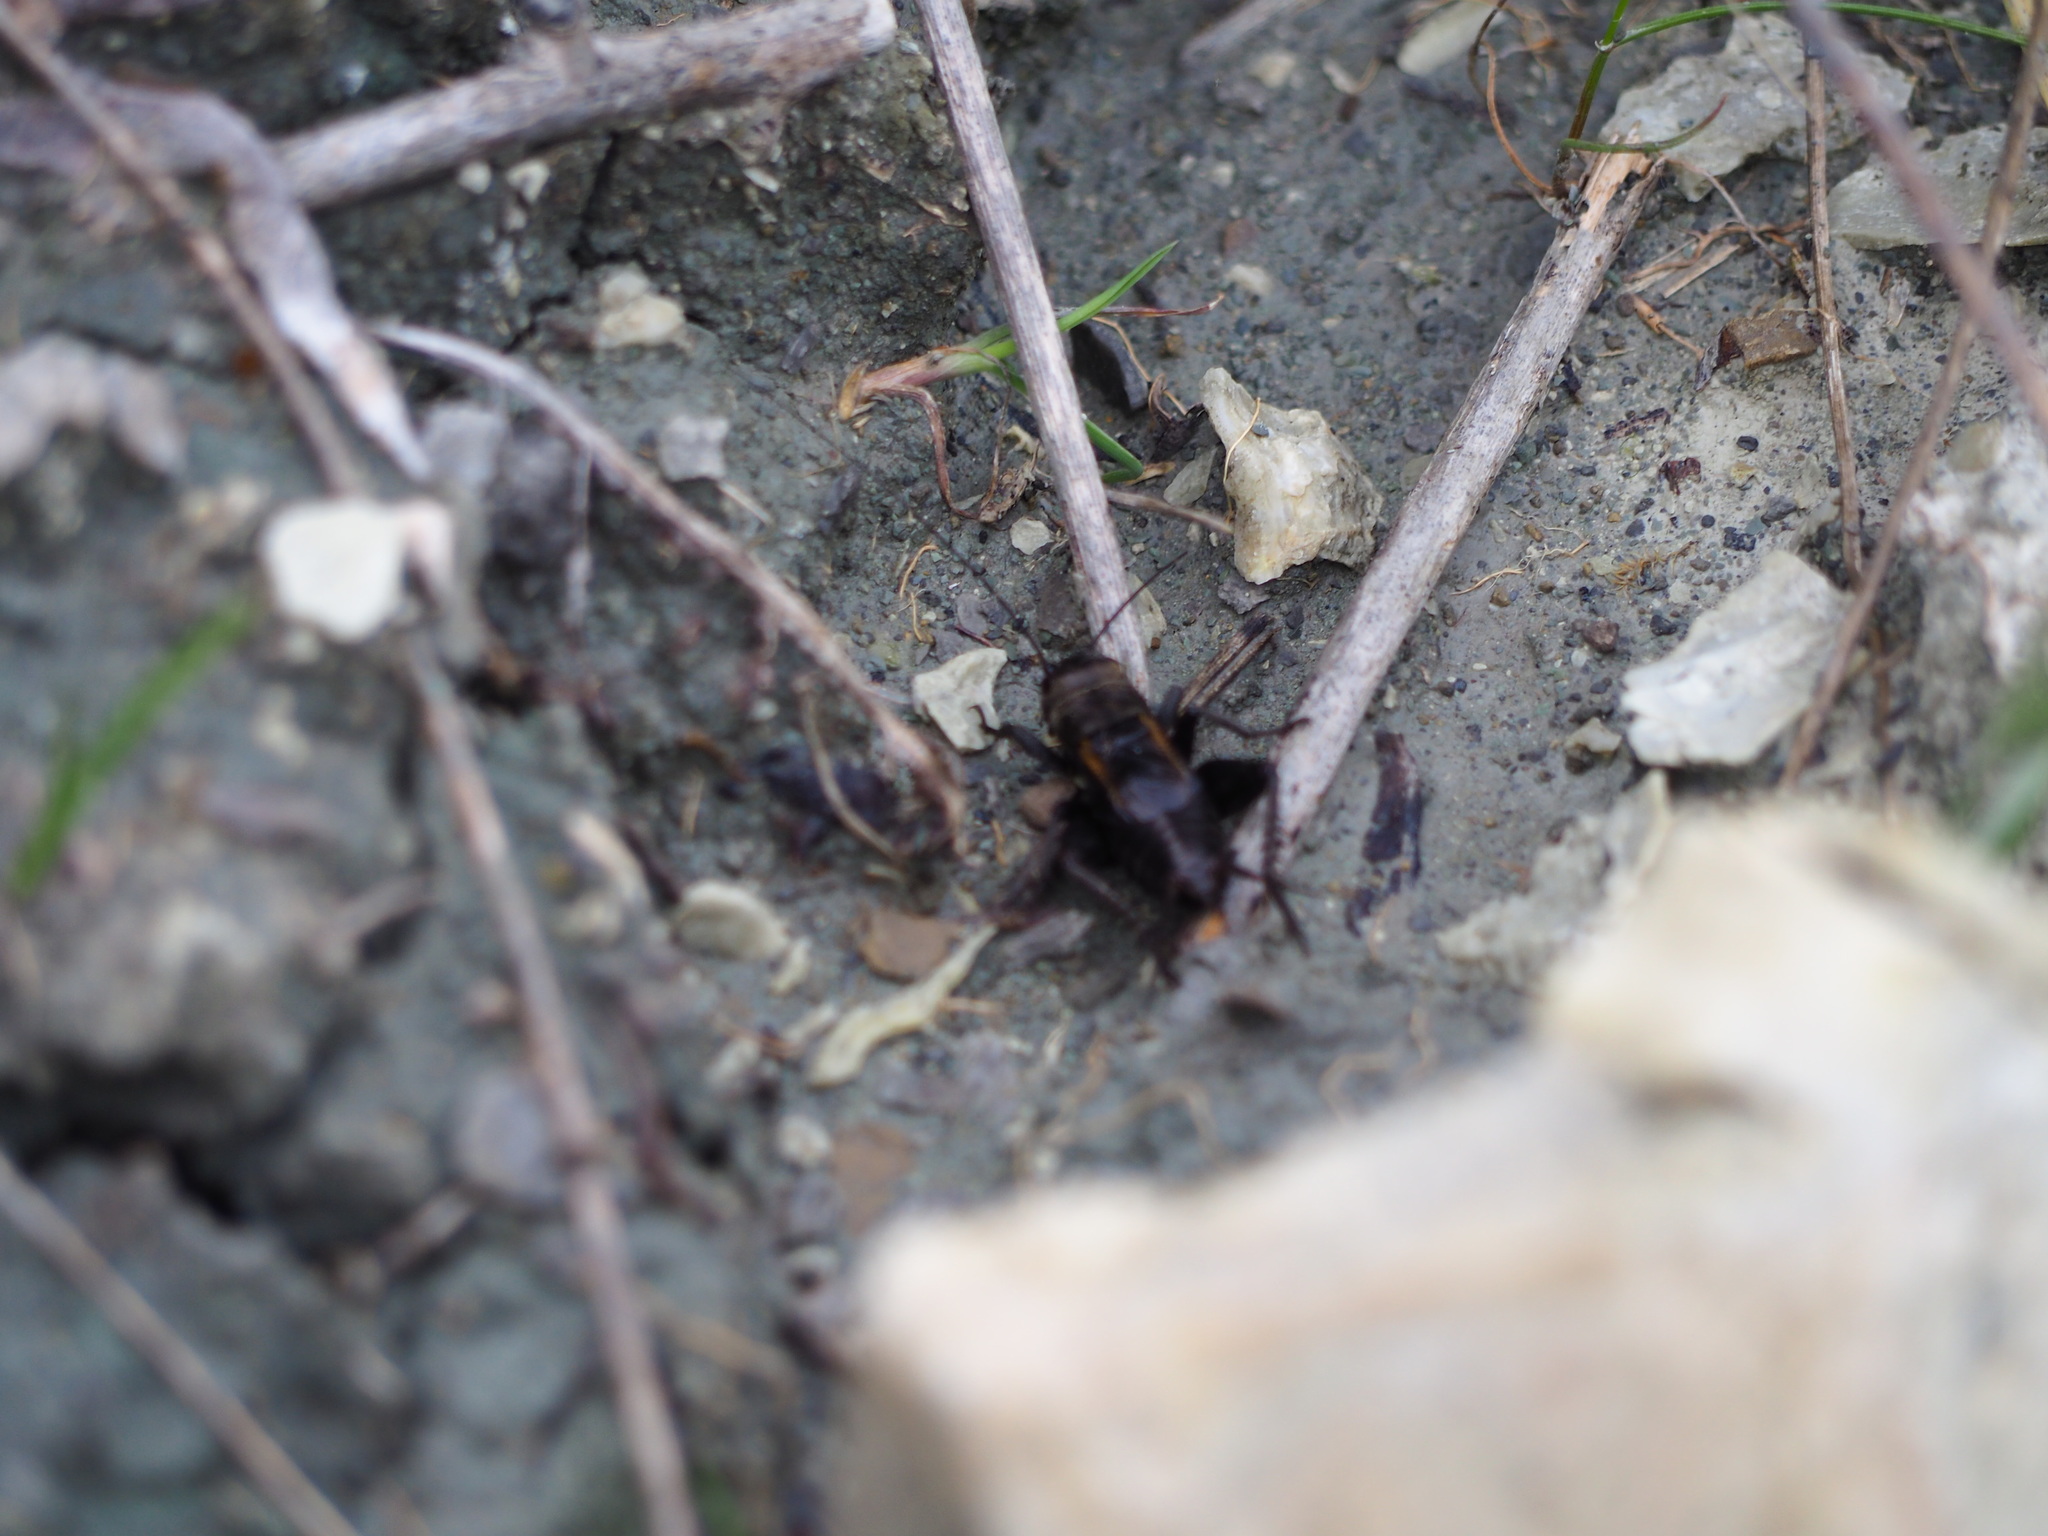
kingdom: Animalia
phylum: Arthropoda
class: Insecta
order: Orthoptera
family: Gryllidae
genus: Melanogryllus
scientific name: Melanogryllus desertus
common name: Desert cricket
